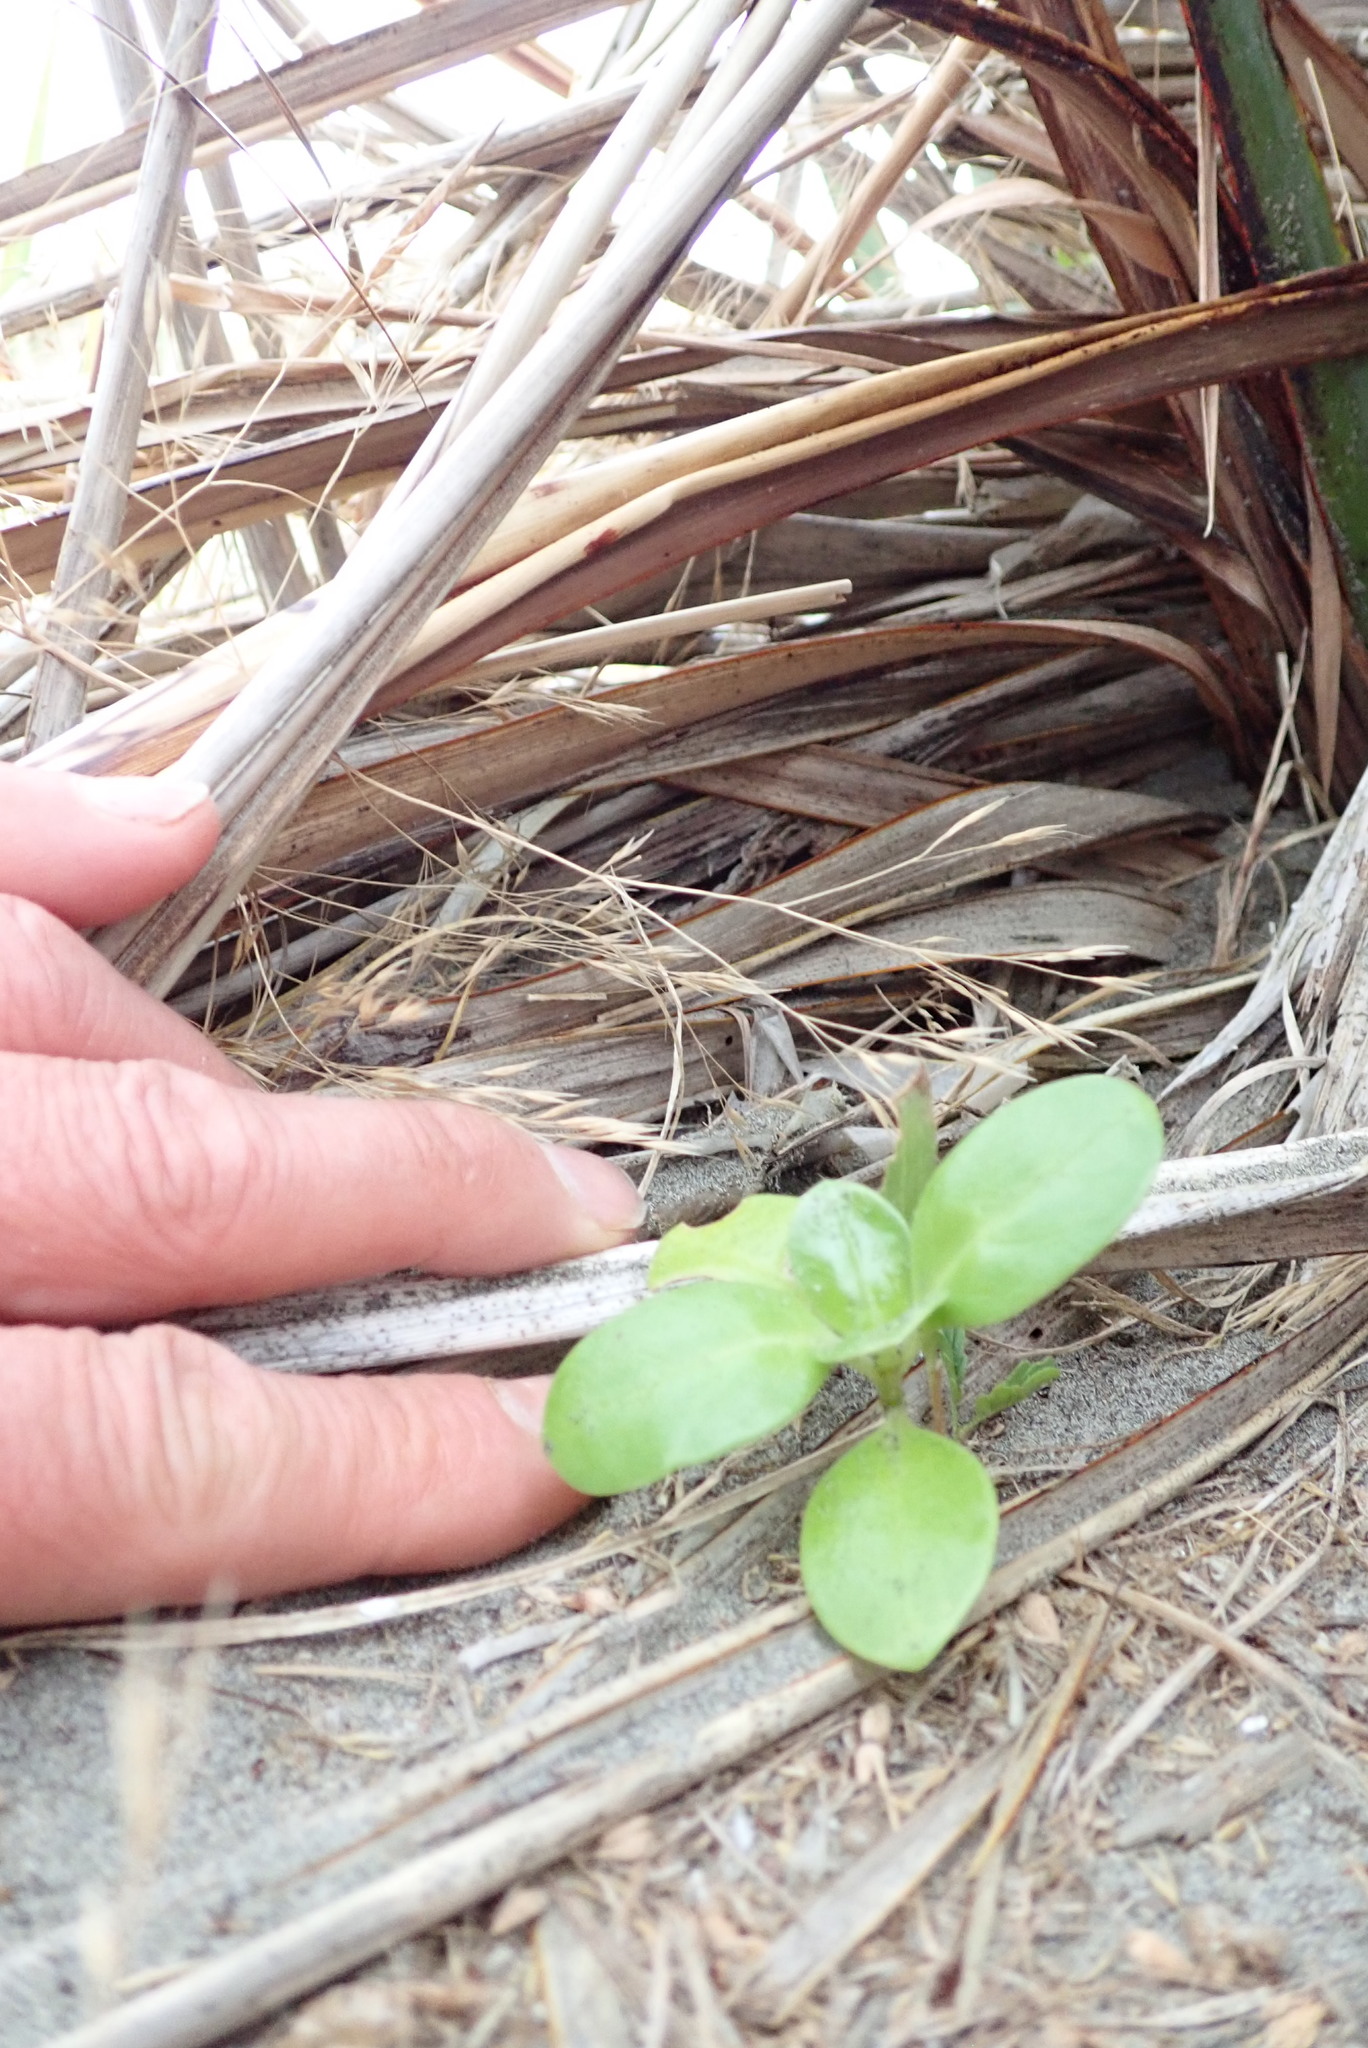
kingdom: Plantae
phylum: Tracheophyta
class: Magnoliopsida
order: Gentianales
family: Rubiaceae
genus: Coprosma
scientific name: Coprosma repens
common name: Tree bedstraw
